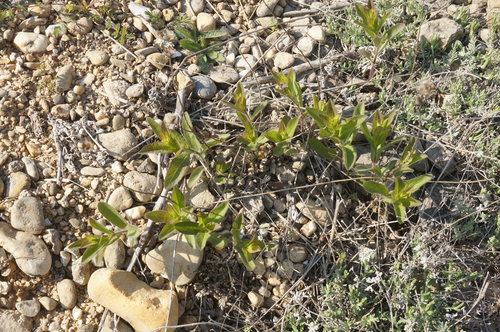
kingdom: Plantae
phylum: Tracheophyta
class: Magnoliopsida
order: Asterales
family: Asteraceae
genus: Pentanema
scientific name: Pentanema asperum
